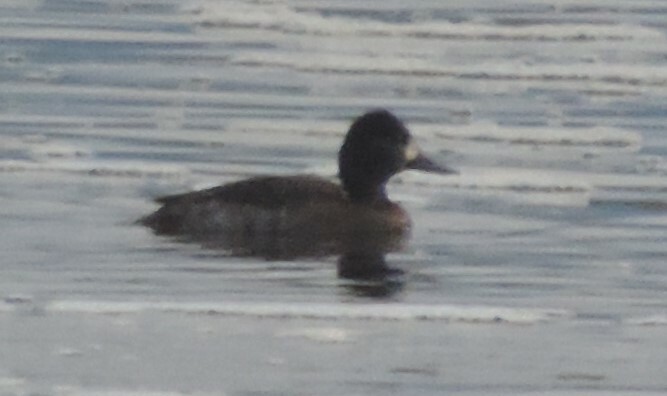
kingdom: Animalia
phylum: Chordata
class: Aves
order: Anseriformes
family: Anatidae
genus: Aythya
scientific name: Aythya affinis
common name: Lesser scaup
